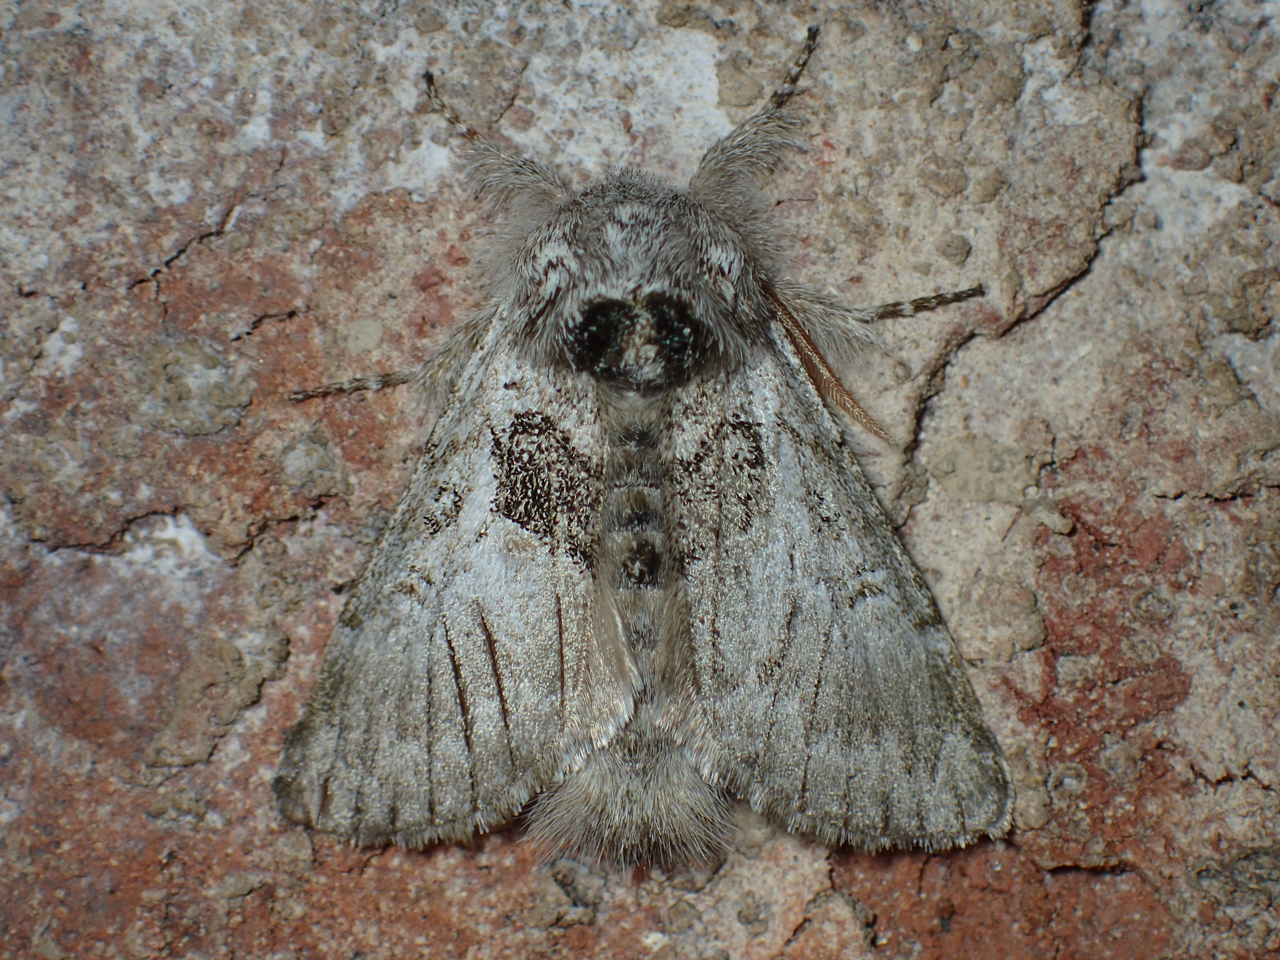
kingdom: Animalia
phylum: Arthropoda
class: Insecta
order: Lepidoptera
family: Noctuidae
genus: Colocasia
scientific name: Colocasia flavicornis
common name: Saddled yellowhorn
